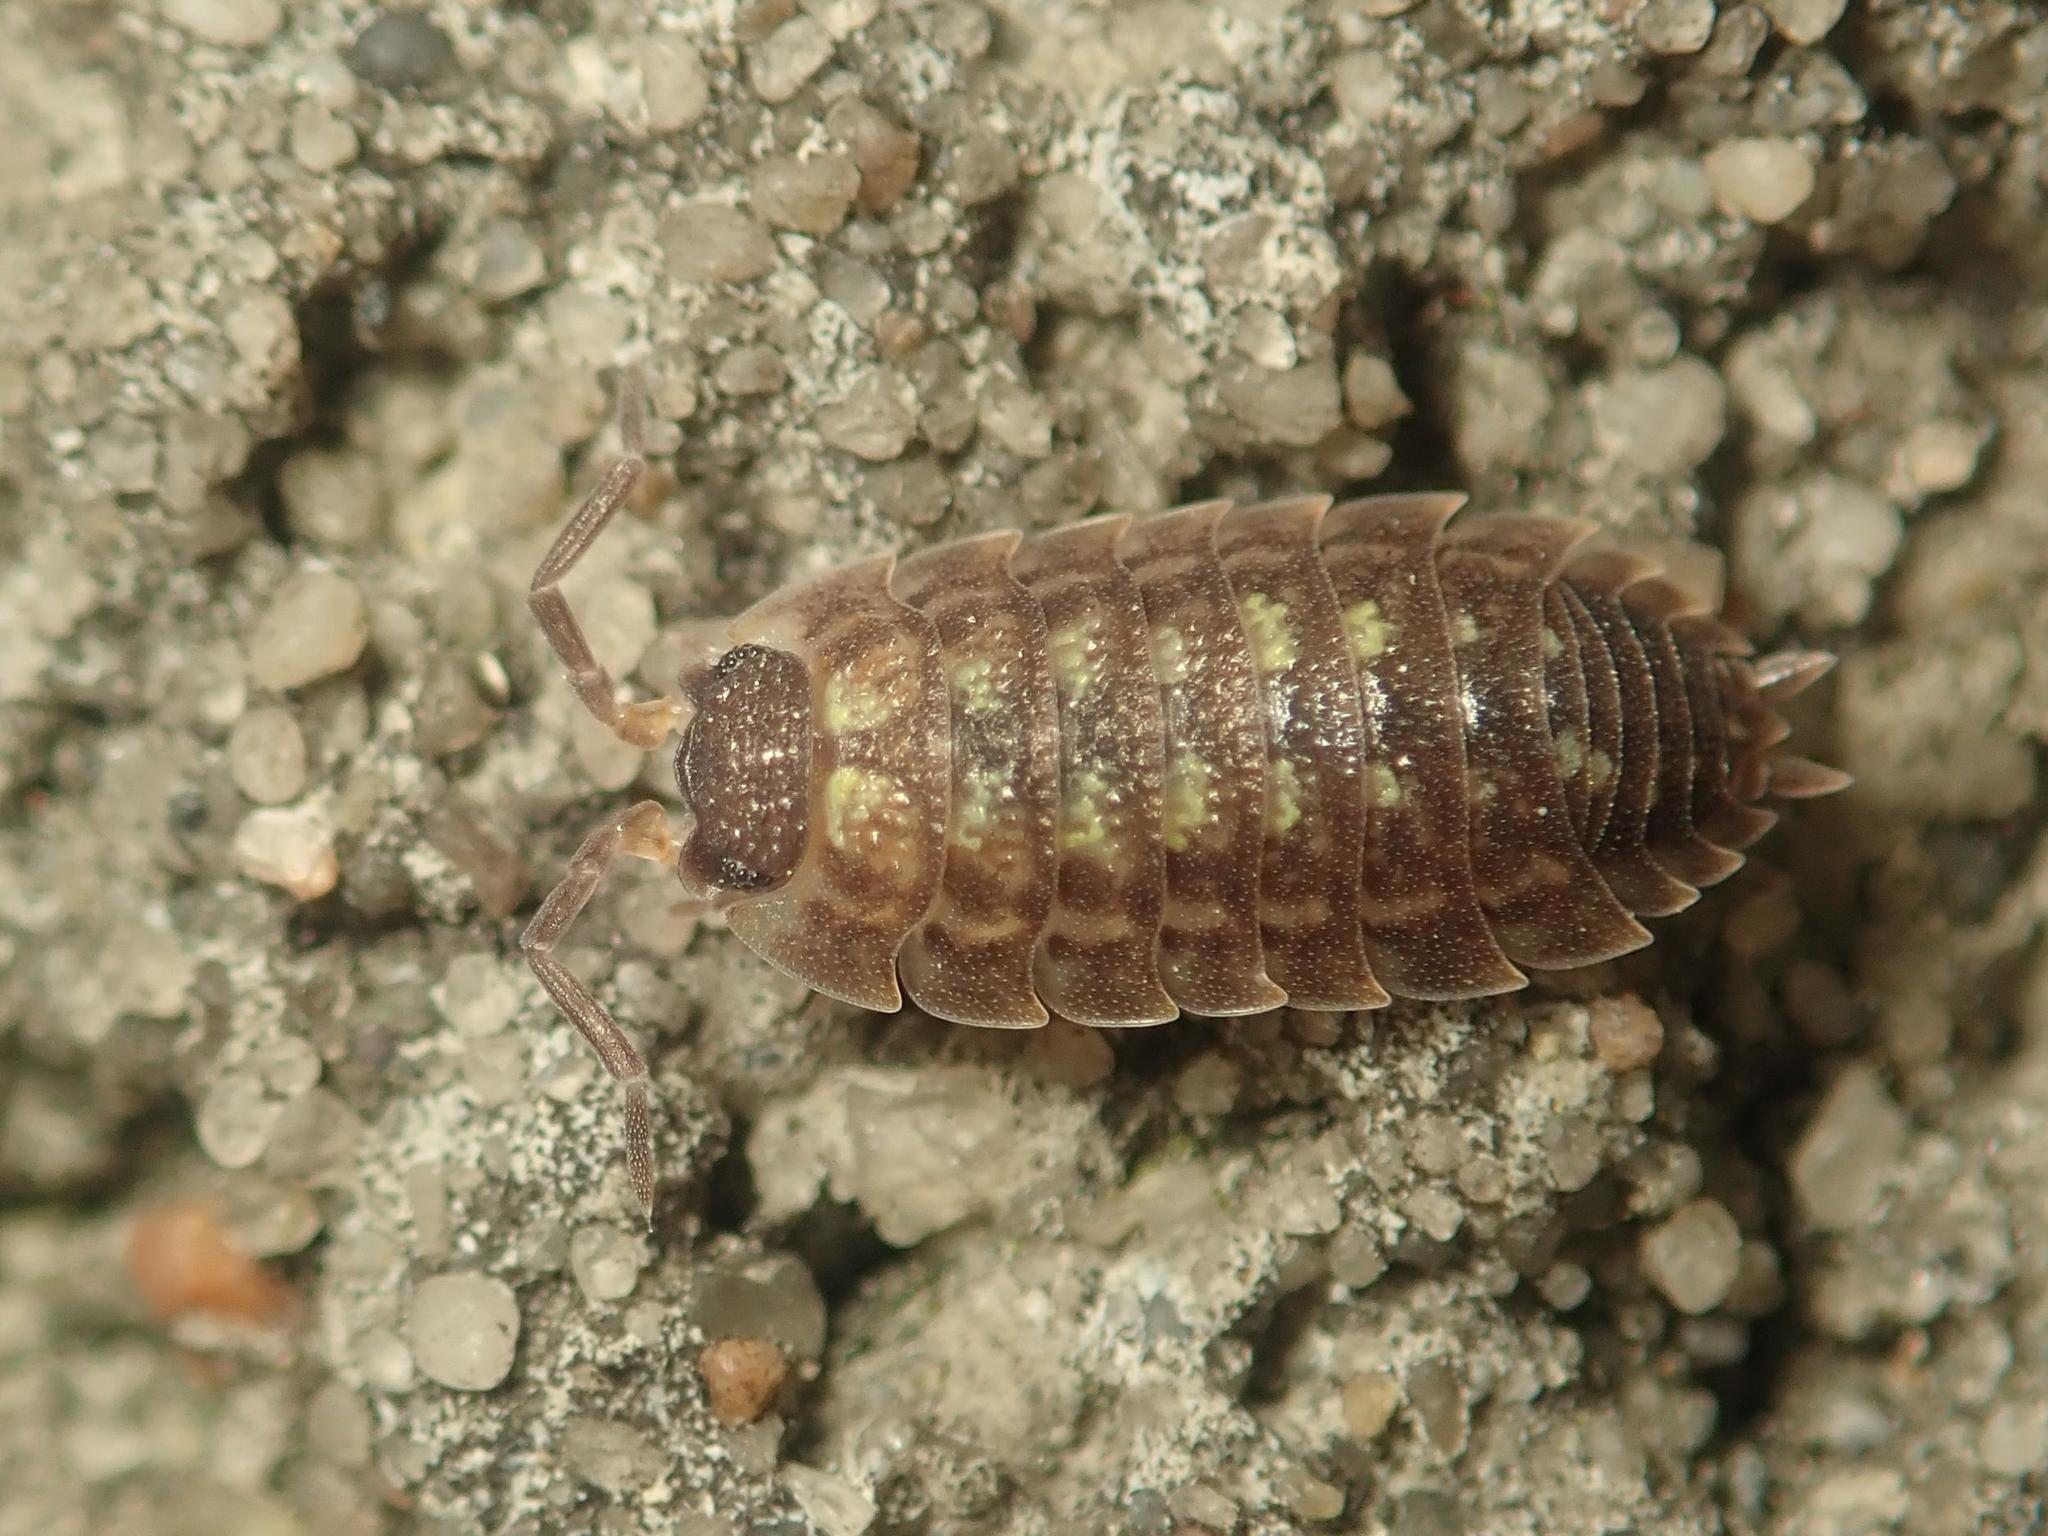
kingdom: Animalia
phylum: Arthropoda
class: Malacostraca
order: Isopoda
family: Porcellionidae
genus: Porcellio
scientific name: Porcellio spinicornis
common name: Painted woodlouse
